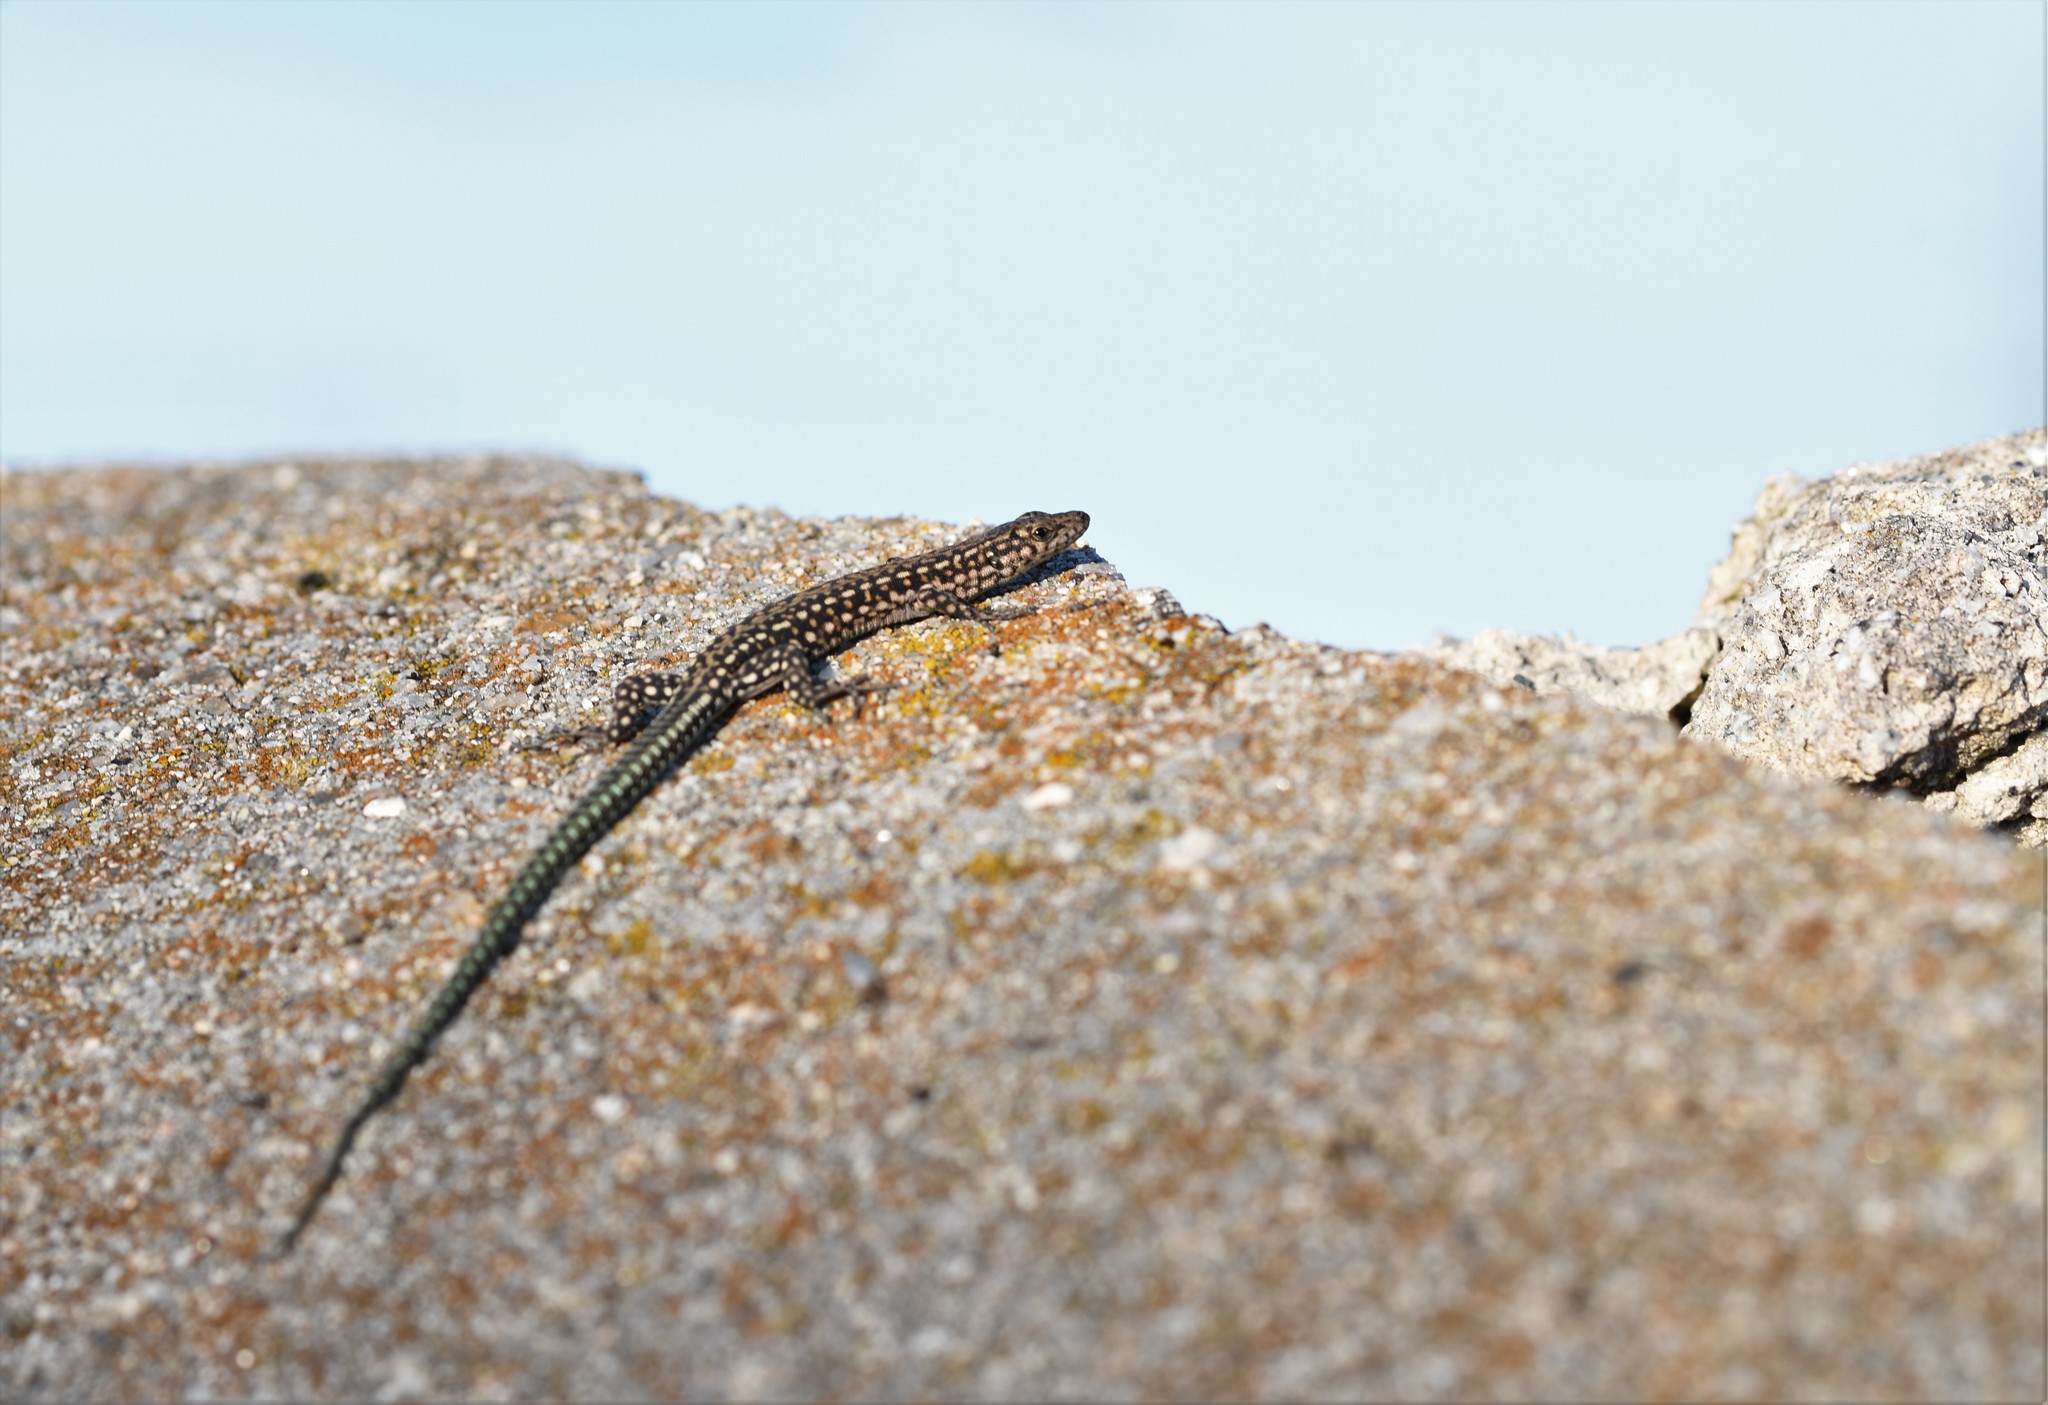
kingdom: Animalia
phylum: Chordata
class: Squamata
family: Lacertidae
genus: Podarcis
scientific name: Podarcis
